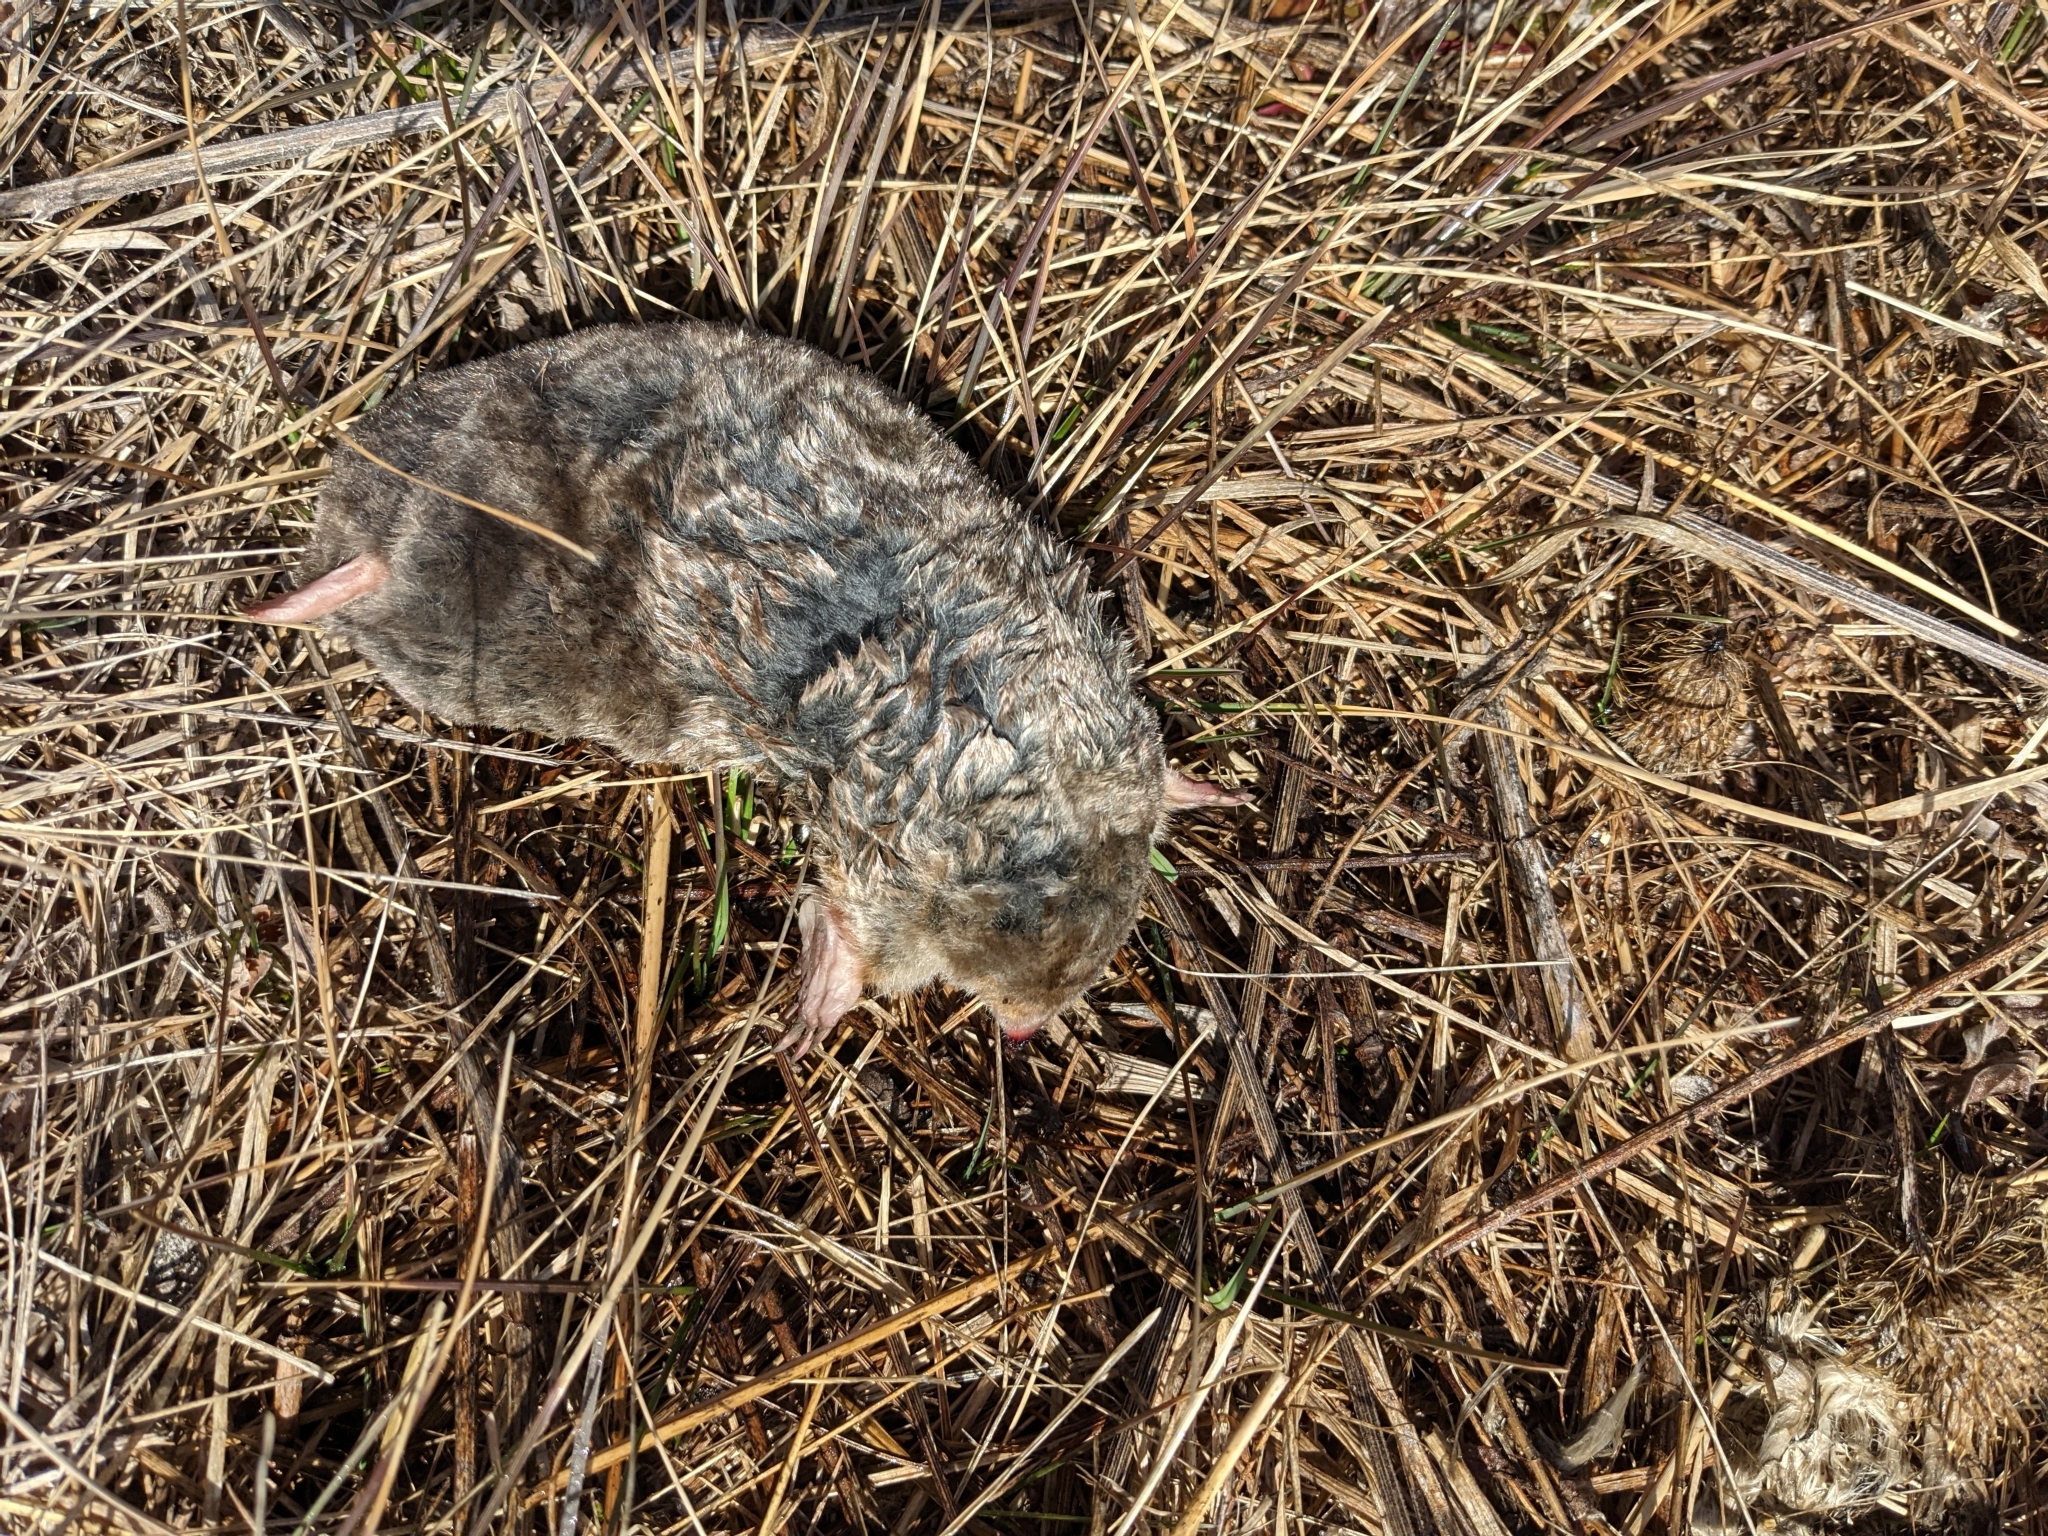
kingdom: Animalia
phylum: Chordata
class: Mammalia
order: Soricomorpha
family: Talpidae
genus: Scalopus
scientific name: Scalopus aquaticus
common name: Eastern mole
